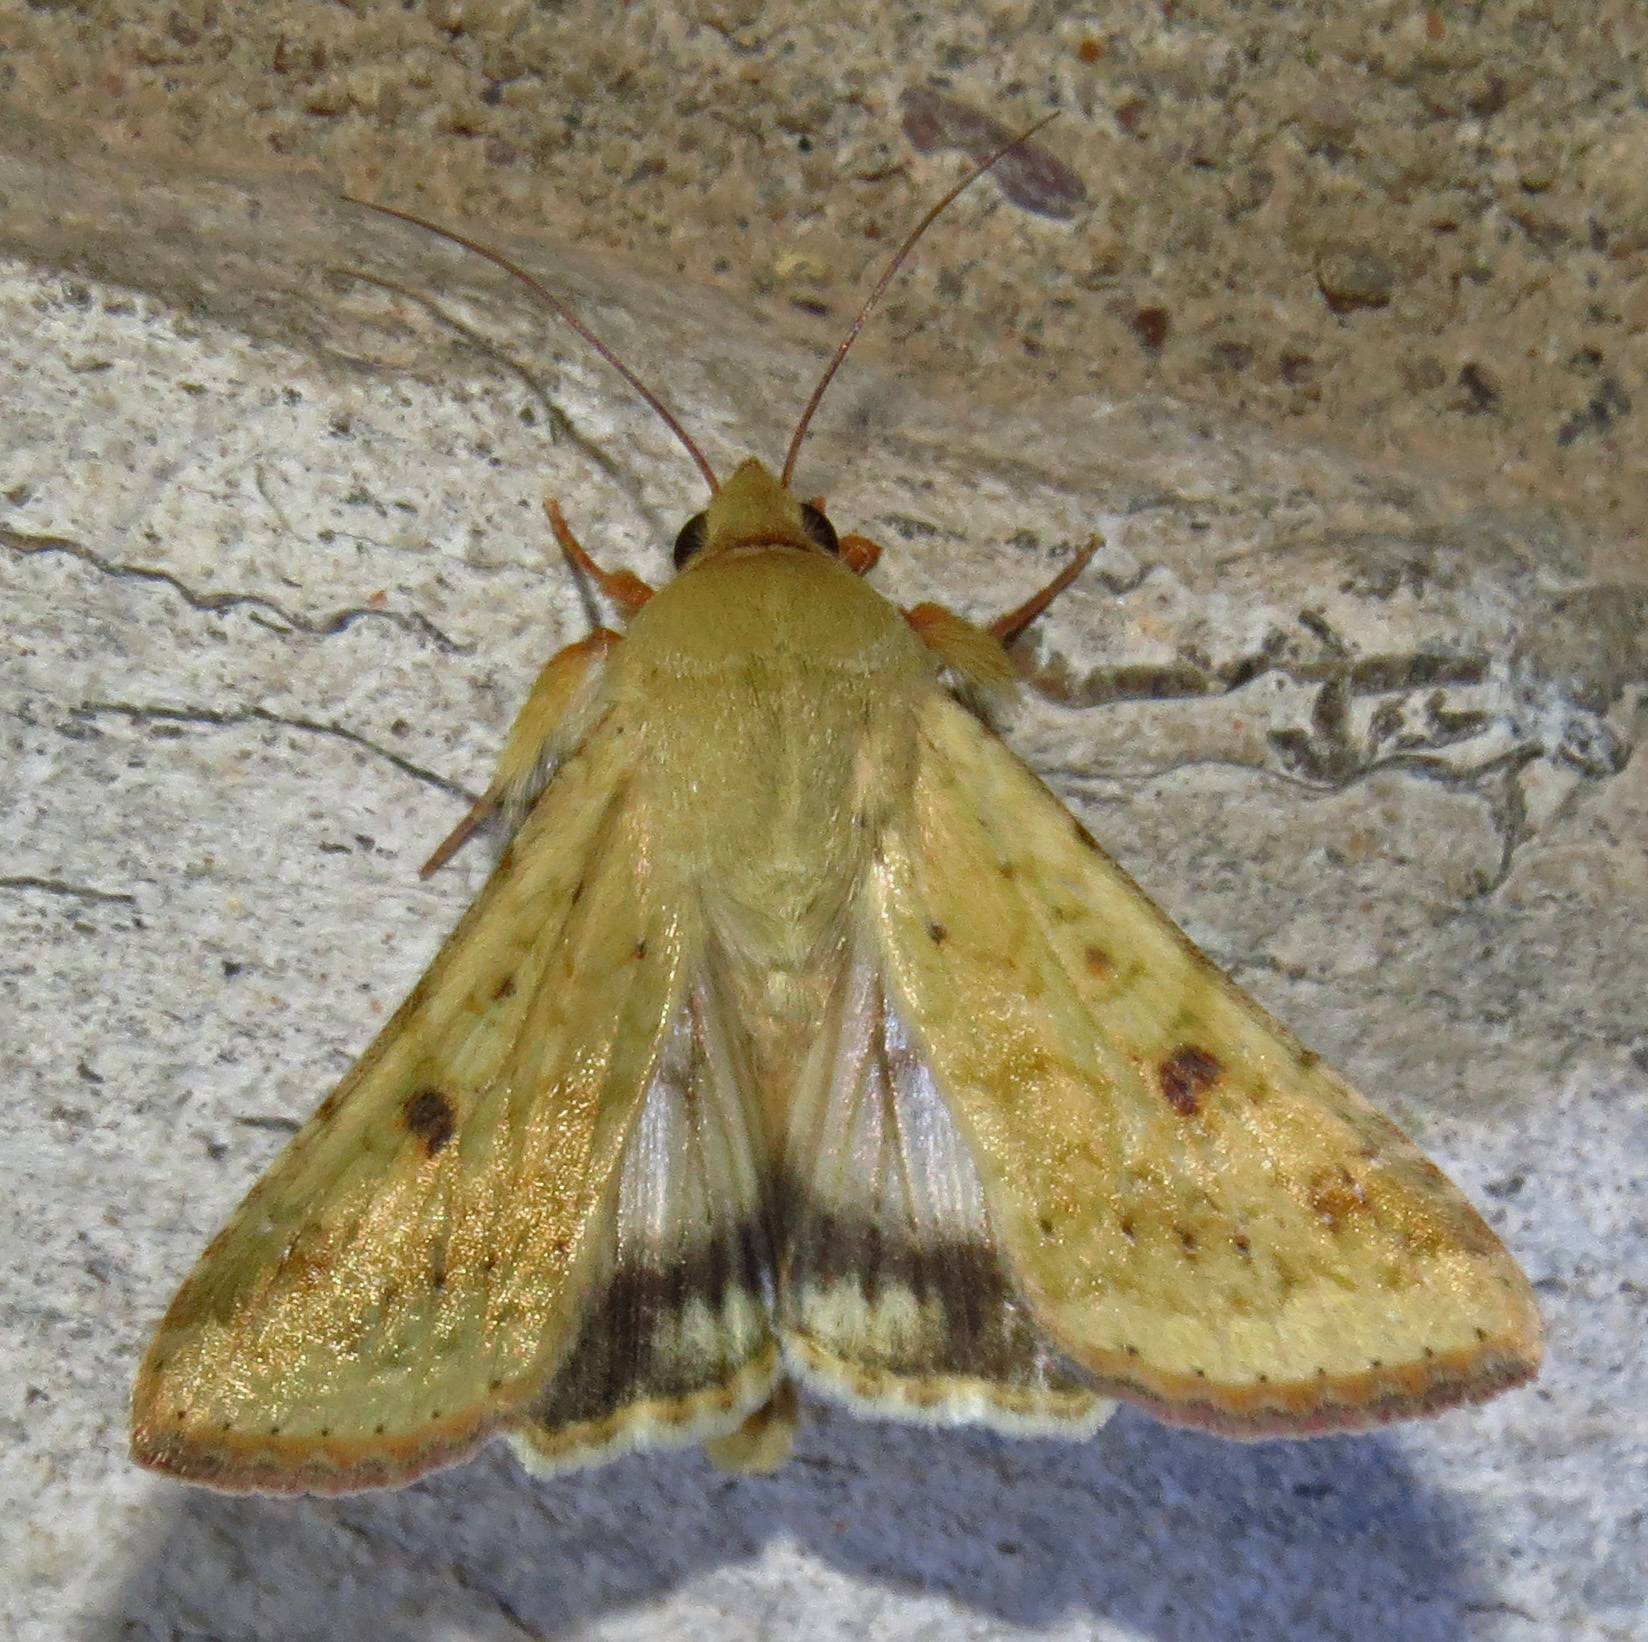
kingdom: Animalia
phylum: Arthropoda
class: Insecta
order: Lepidoptera
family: Noctuidae
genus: Helicoverpa
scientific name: Helicoverpa zea
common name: Bollworm
